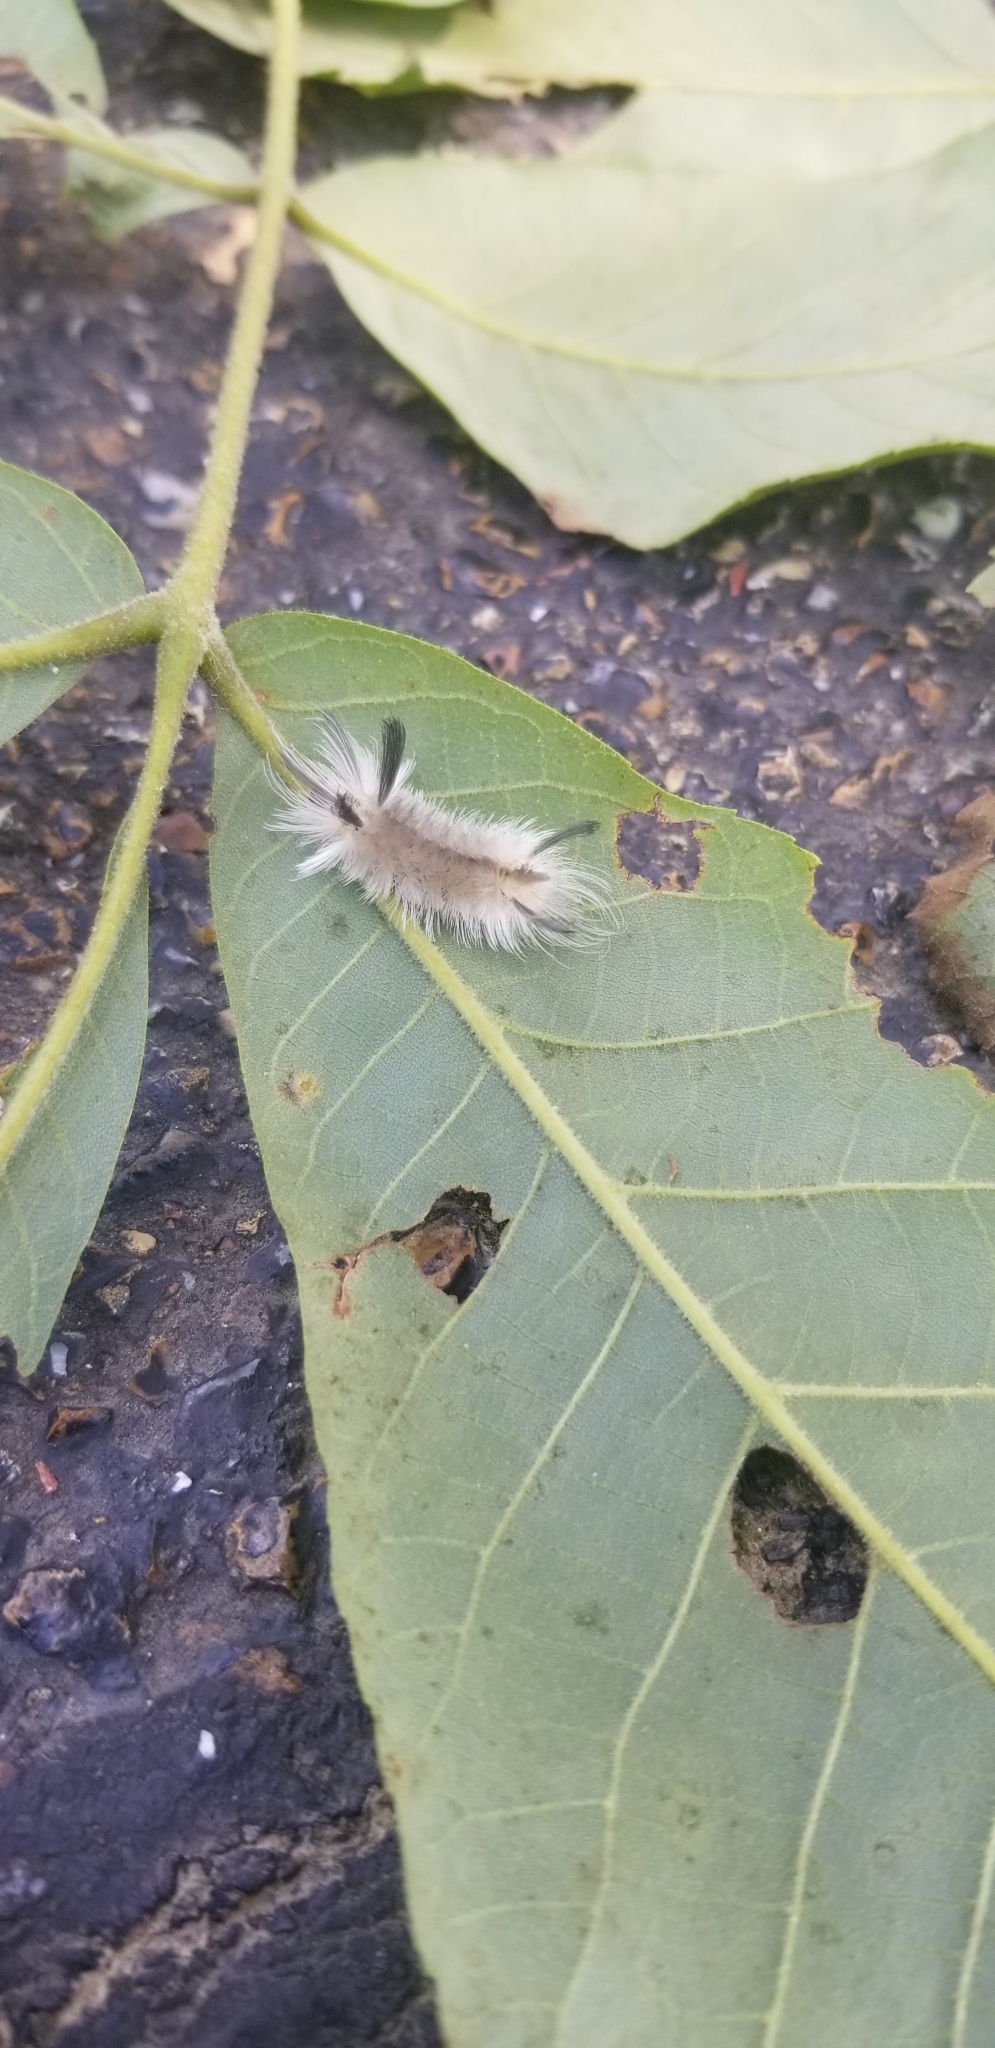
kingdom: Animalia
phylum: Arthropoda
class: Insecta
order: Lepidoptera
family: Erebidae
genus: Halysidota
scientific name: Halysidota tessellaris
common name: Banded tussock moth
